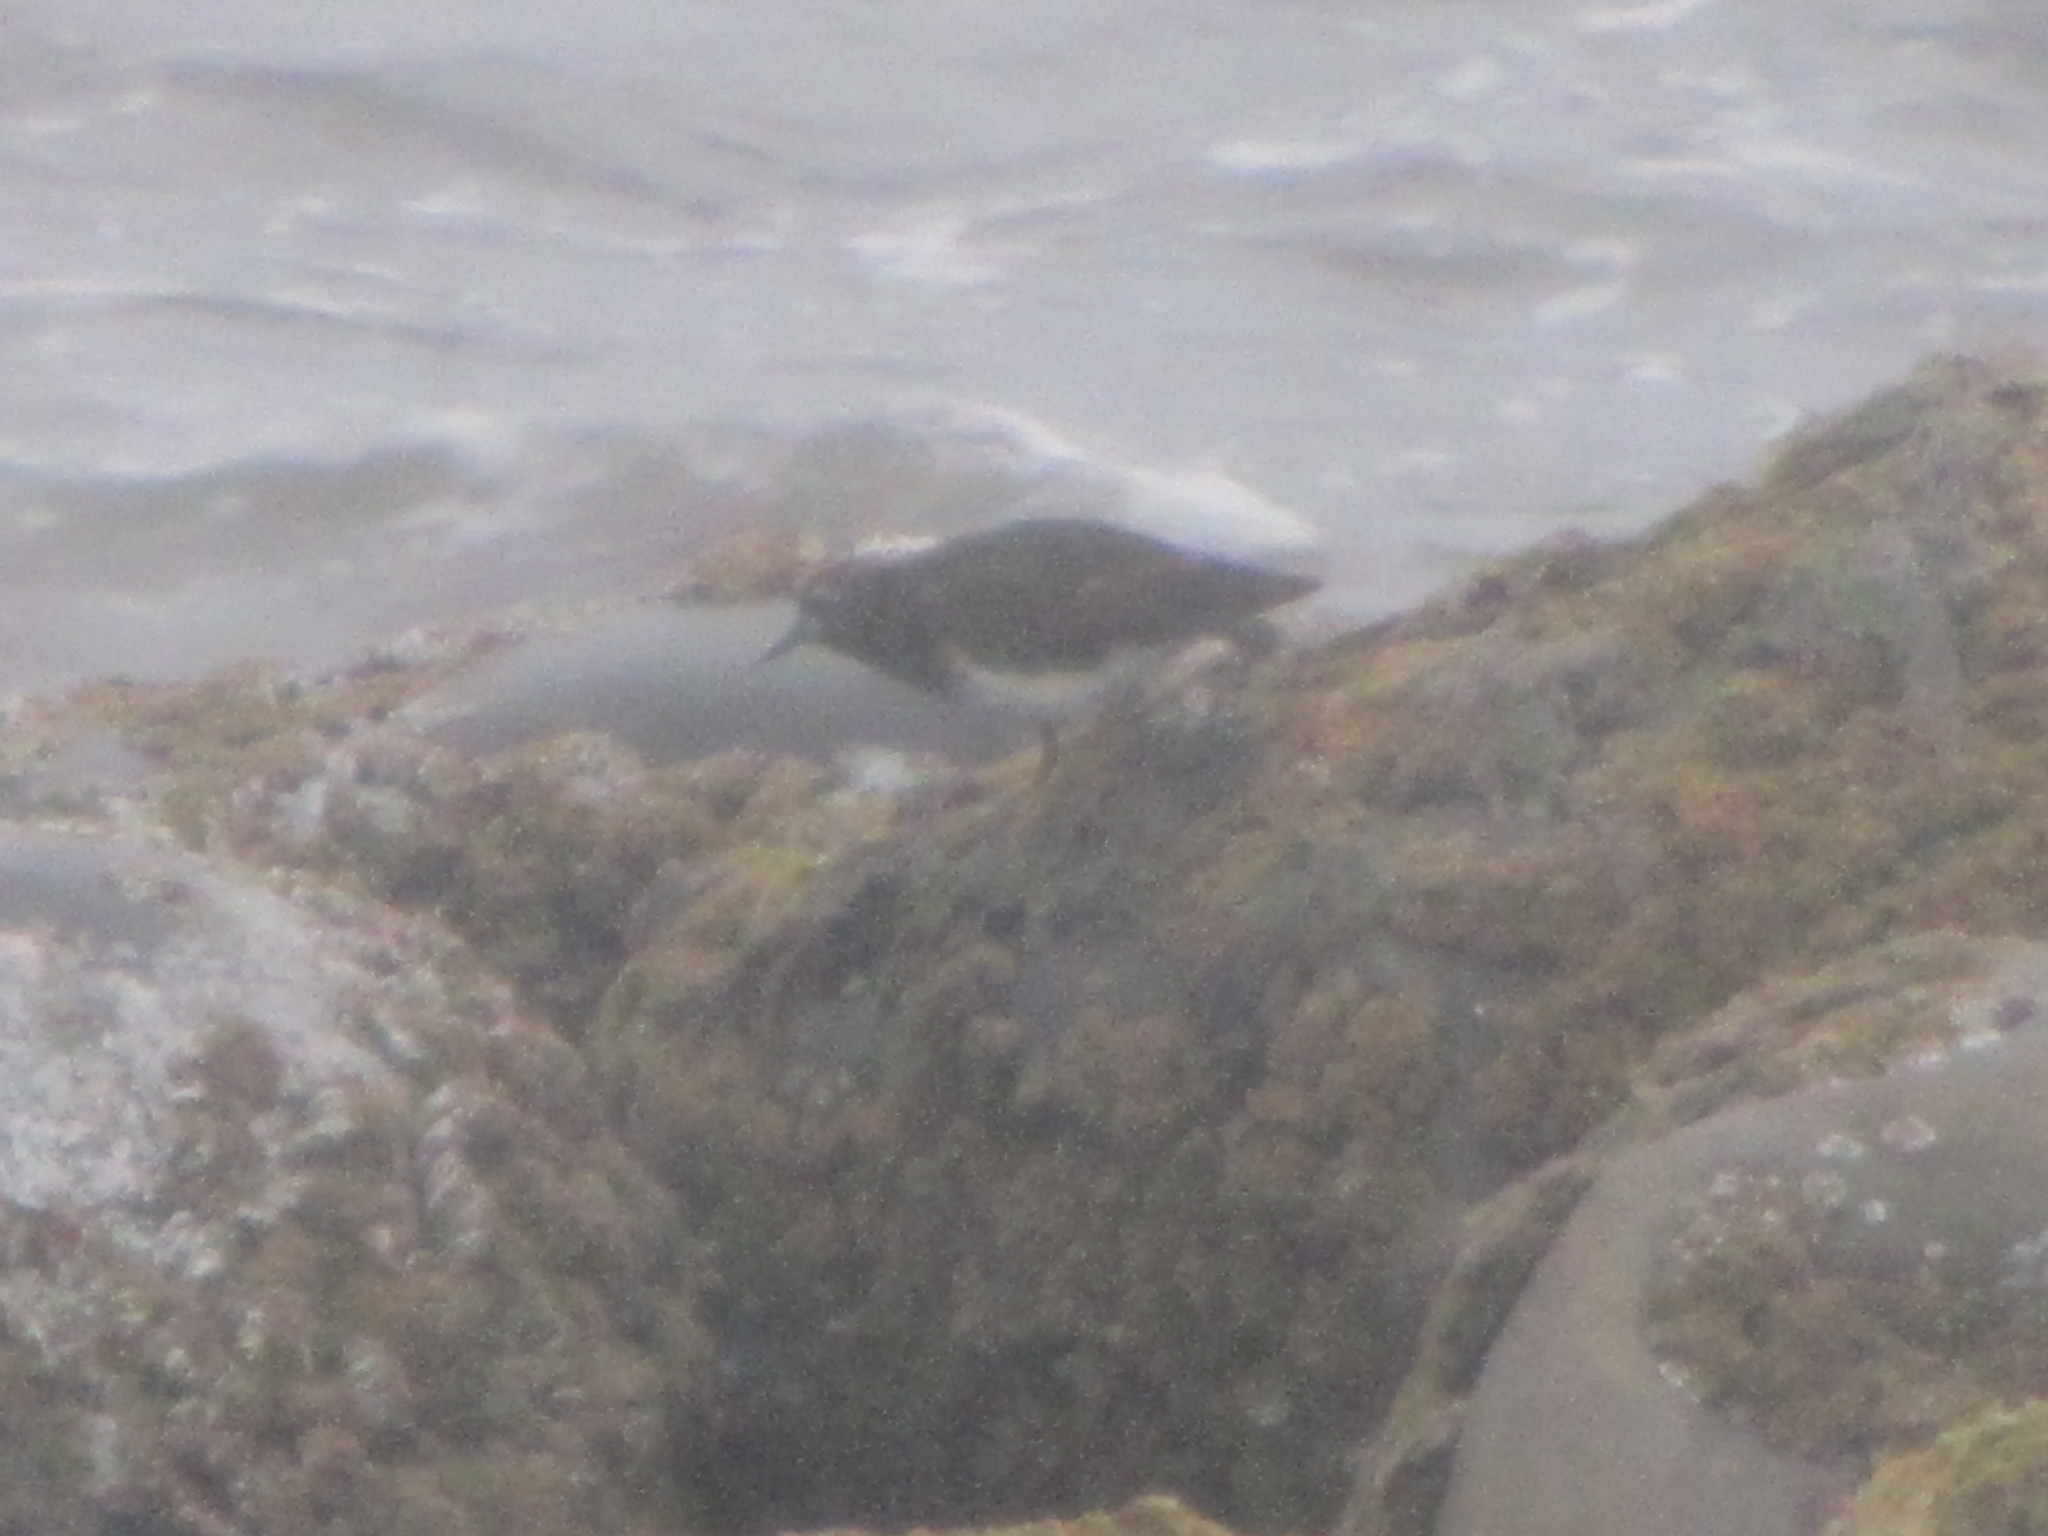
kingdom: Animalia
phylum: Chordata
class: Aves
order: Charadriiformes
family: Scolopacidae
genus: Arenaria
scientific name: Arenaria melanocephala
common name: Black turnstone
